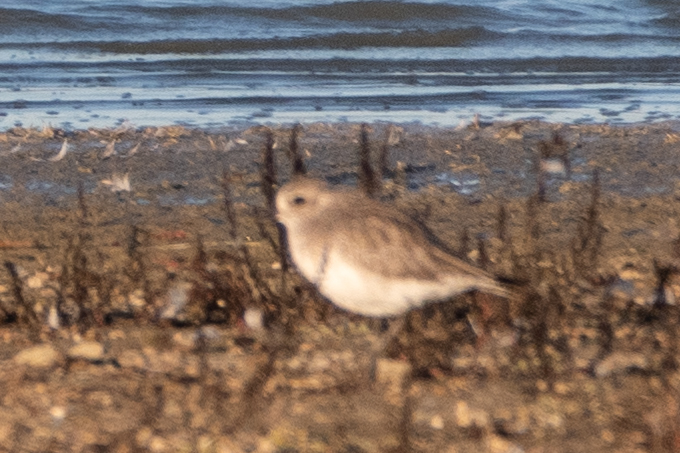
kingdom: Animalia
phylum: Chordata
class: Aves
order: Charadriiformes
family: Charadriidae
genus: Pluvialis
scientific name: Pluvialis squatarola
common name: Grey plover
